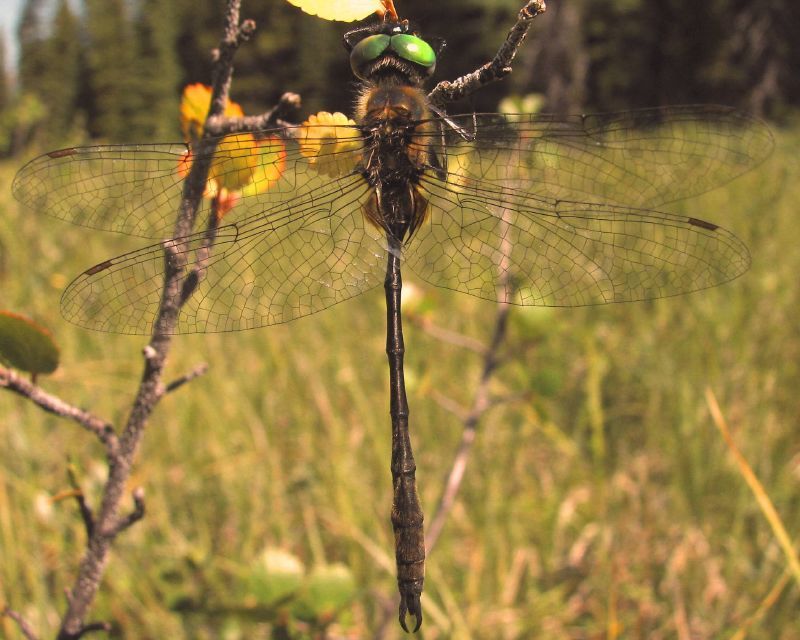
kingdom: Animalia
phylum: Arthropoda
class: Insecta
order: Odonata
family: Corduliidae
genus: Somatochlora
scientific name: Somatochlora franklini
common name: Delicate emerald
